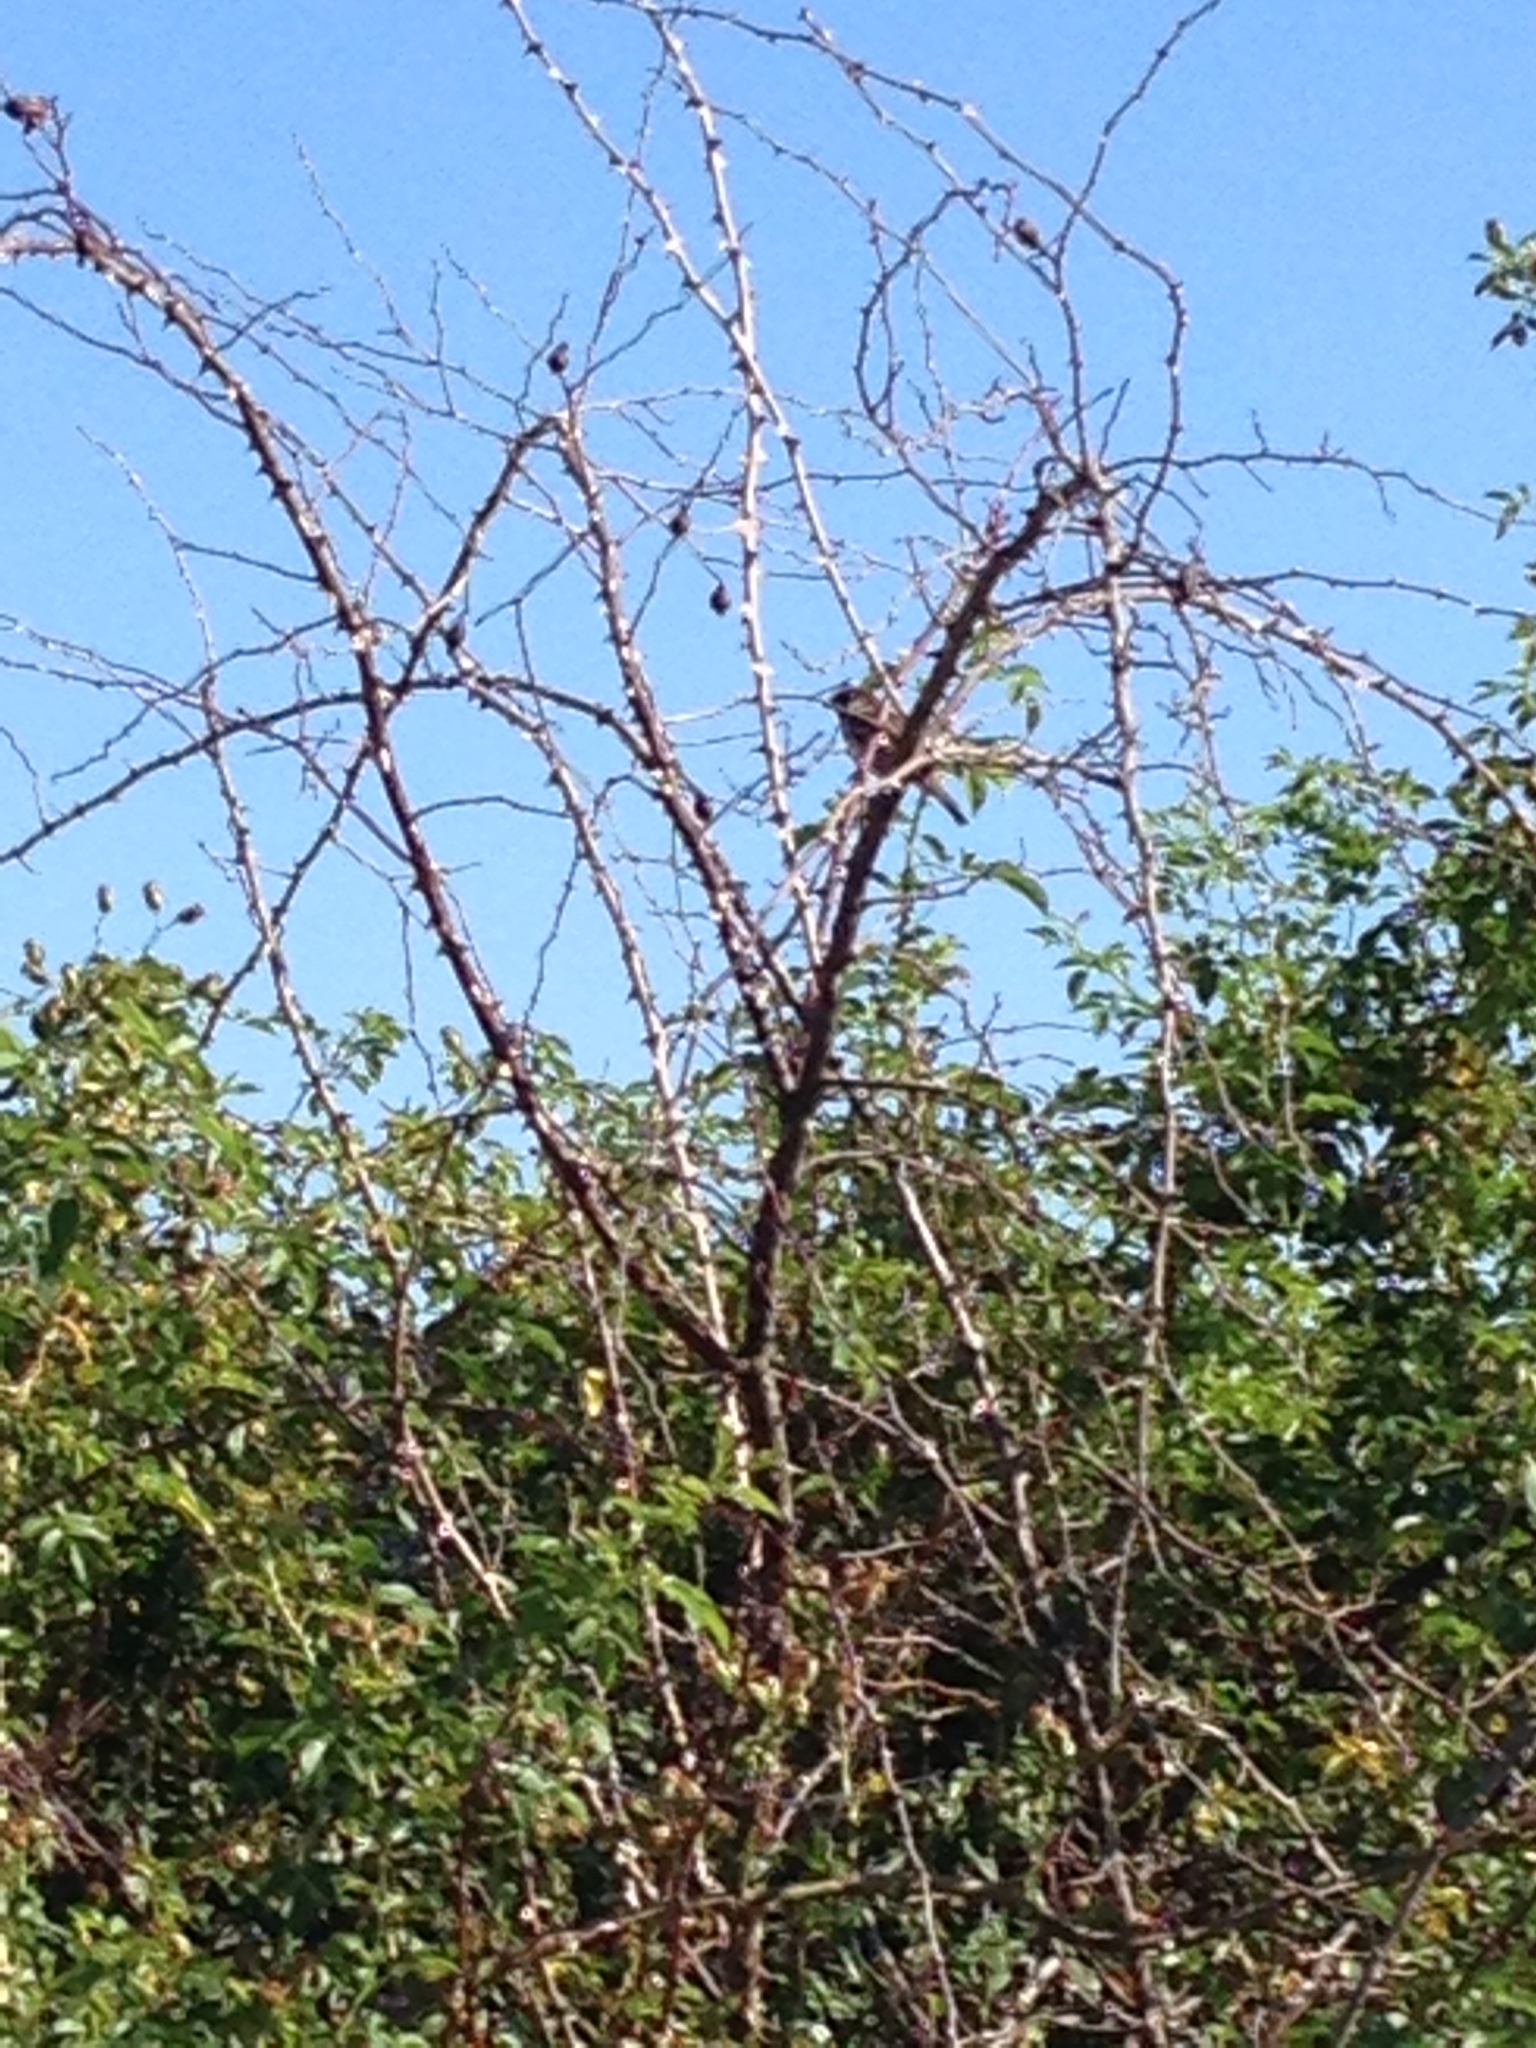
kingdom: Animalia
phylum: Chordata
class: Aves
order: Passeriformes
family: Passeridae
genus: Passer
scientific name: Passer domesticus
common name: House sparrow
